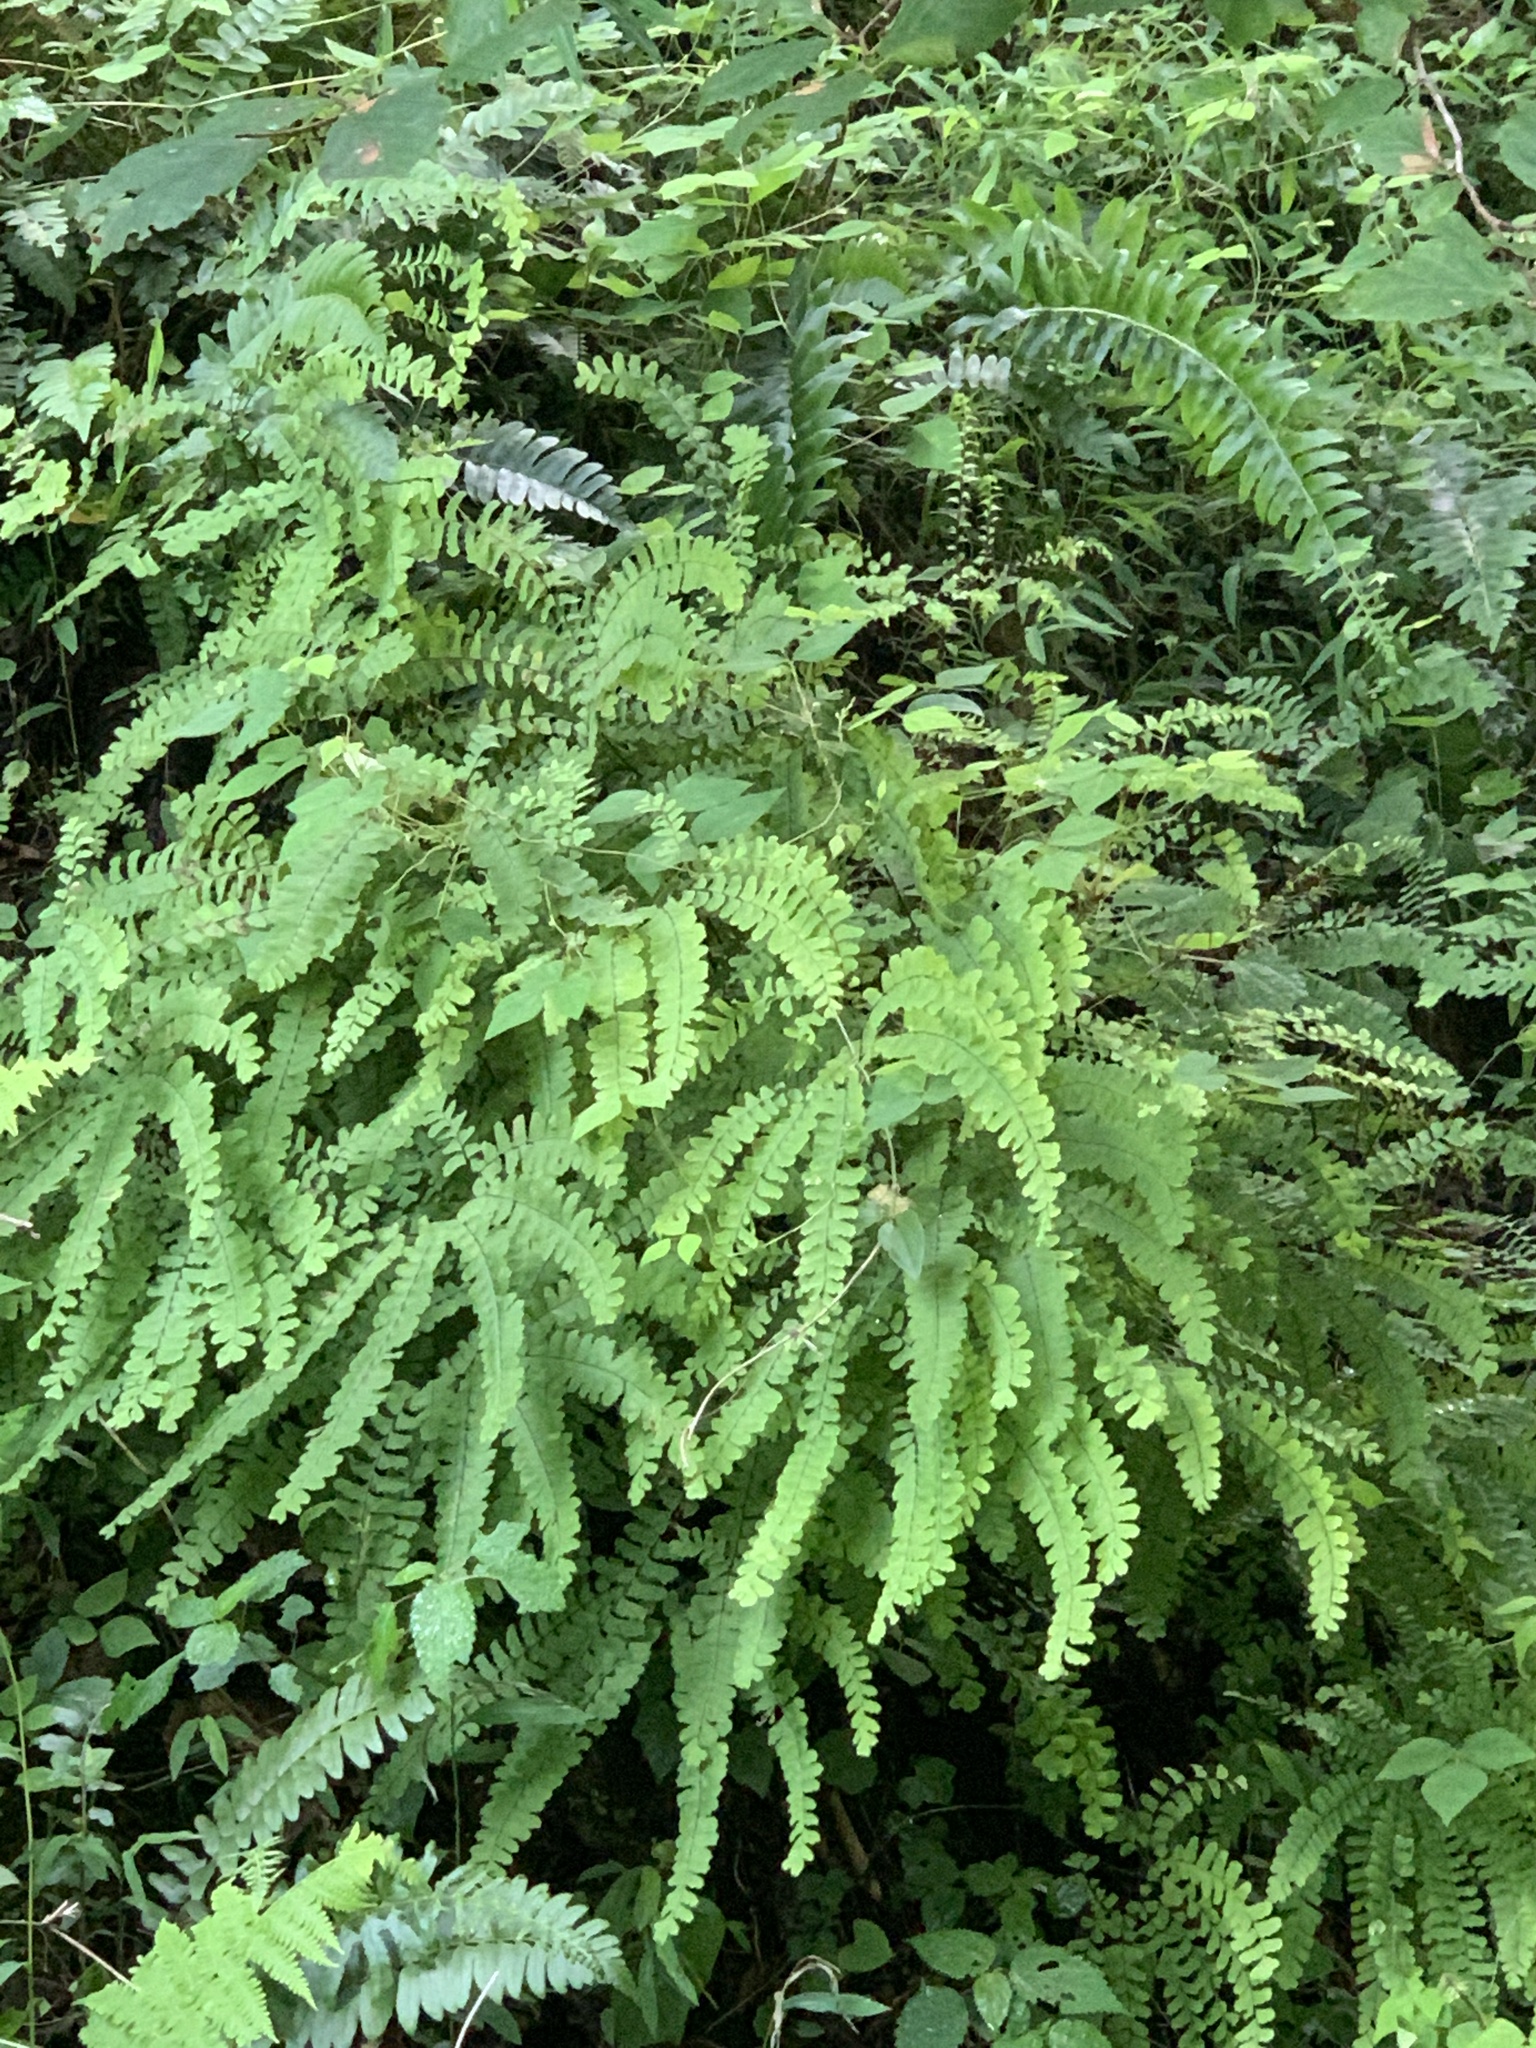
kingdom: Plantae
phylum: Tracheophyta
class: Polypodiopsida
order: Polypodiales
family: Pteridaceae
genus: Adiantum
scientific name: Adiantum pedatum
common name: Five-finger fern
